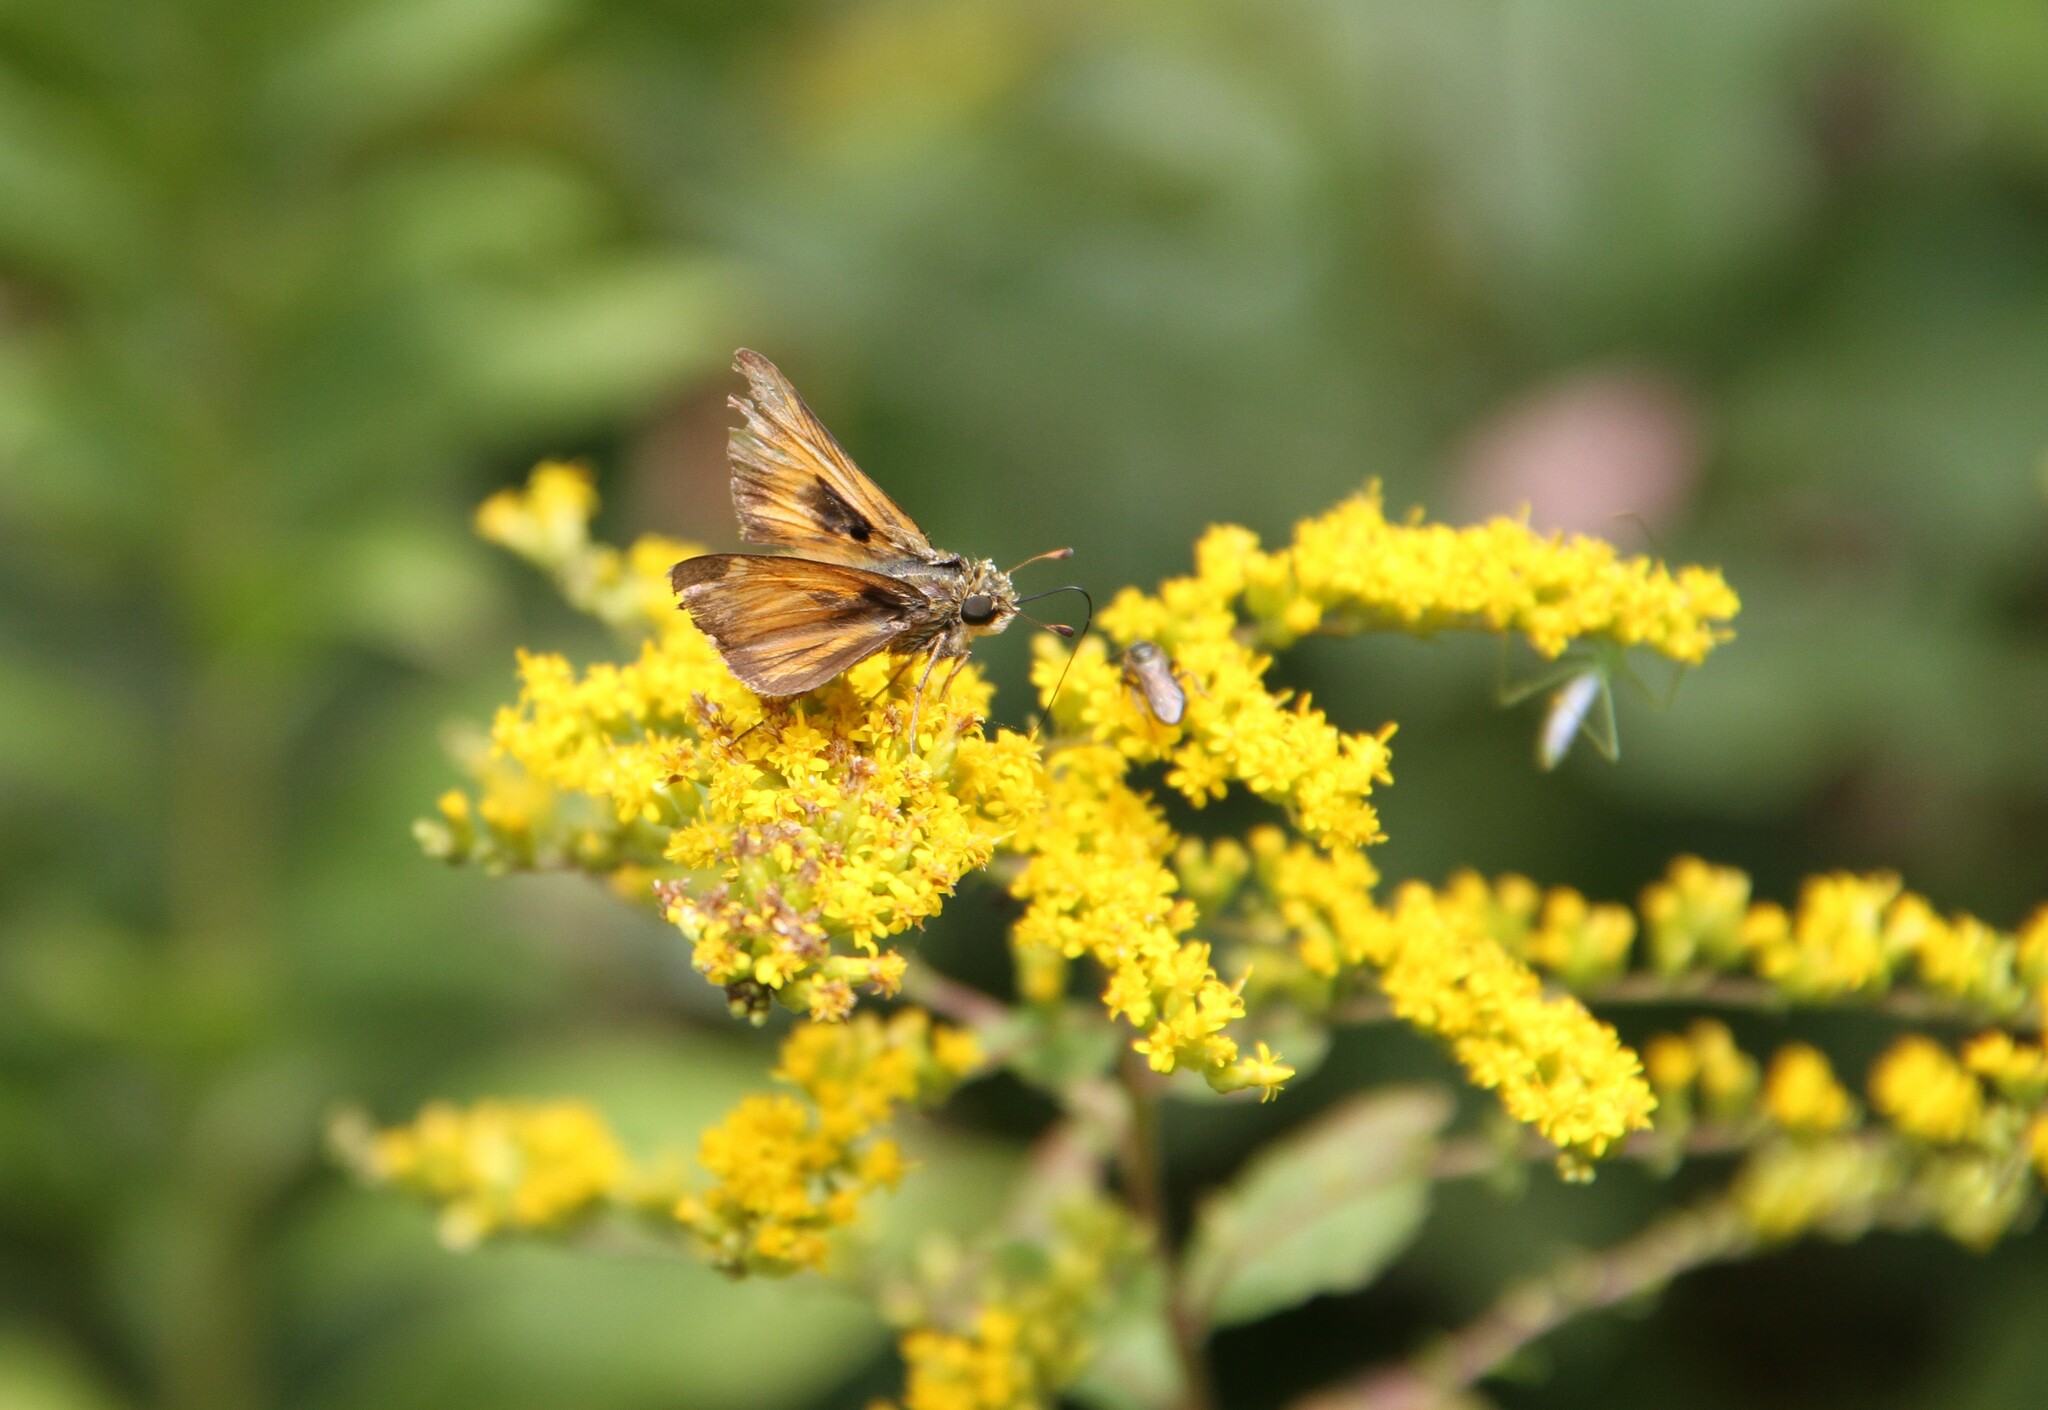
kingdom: Animalia
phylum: Arthropoda
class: Insecta
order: Lepidoptera
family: Hesperiidae
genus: Atalopedes
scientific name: Atalopedes
